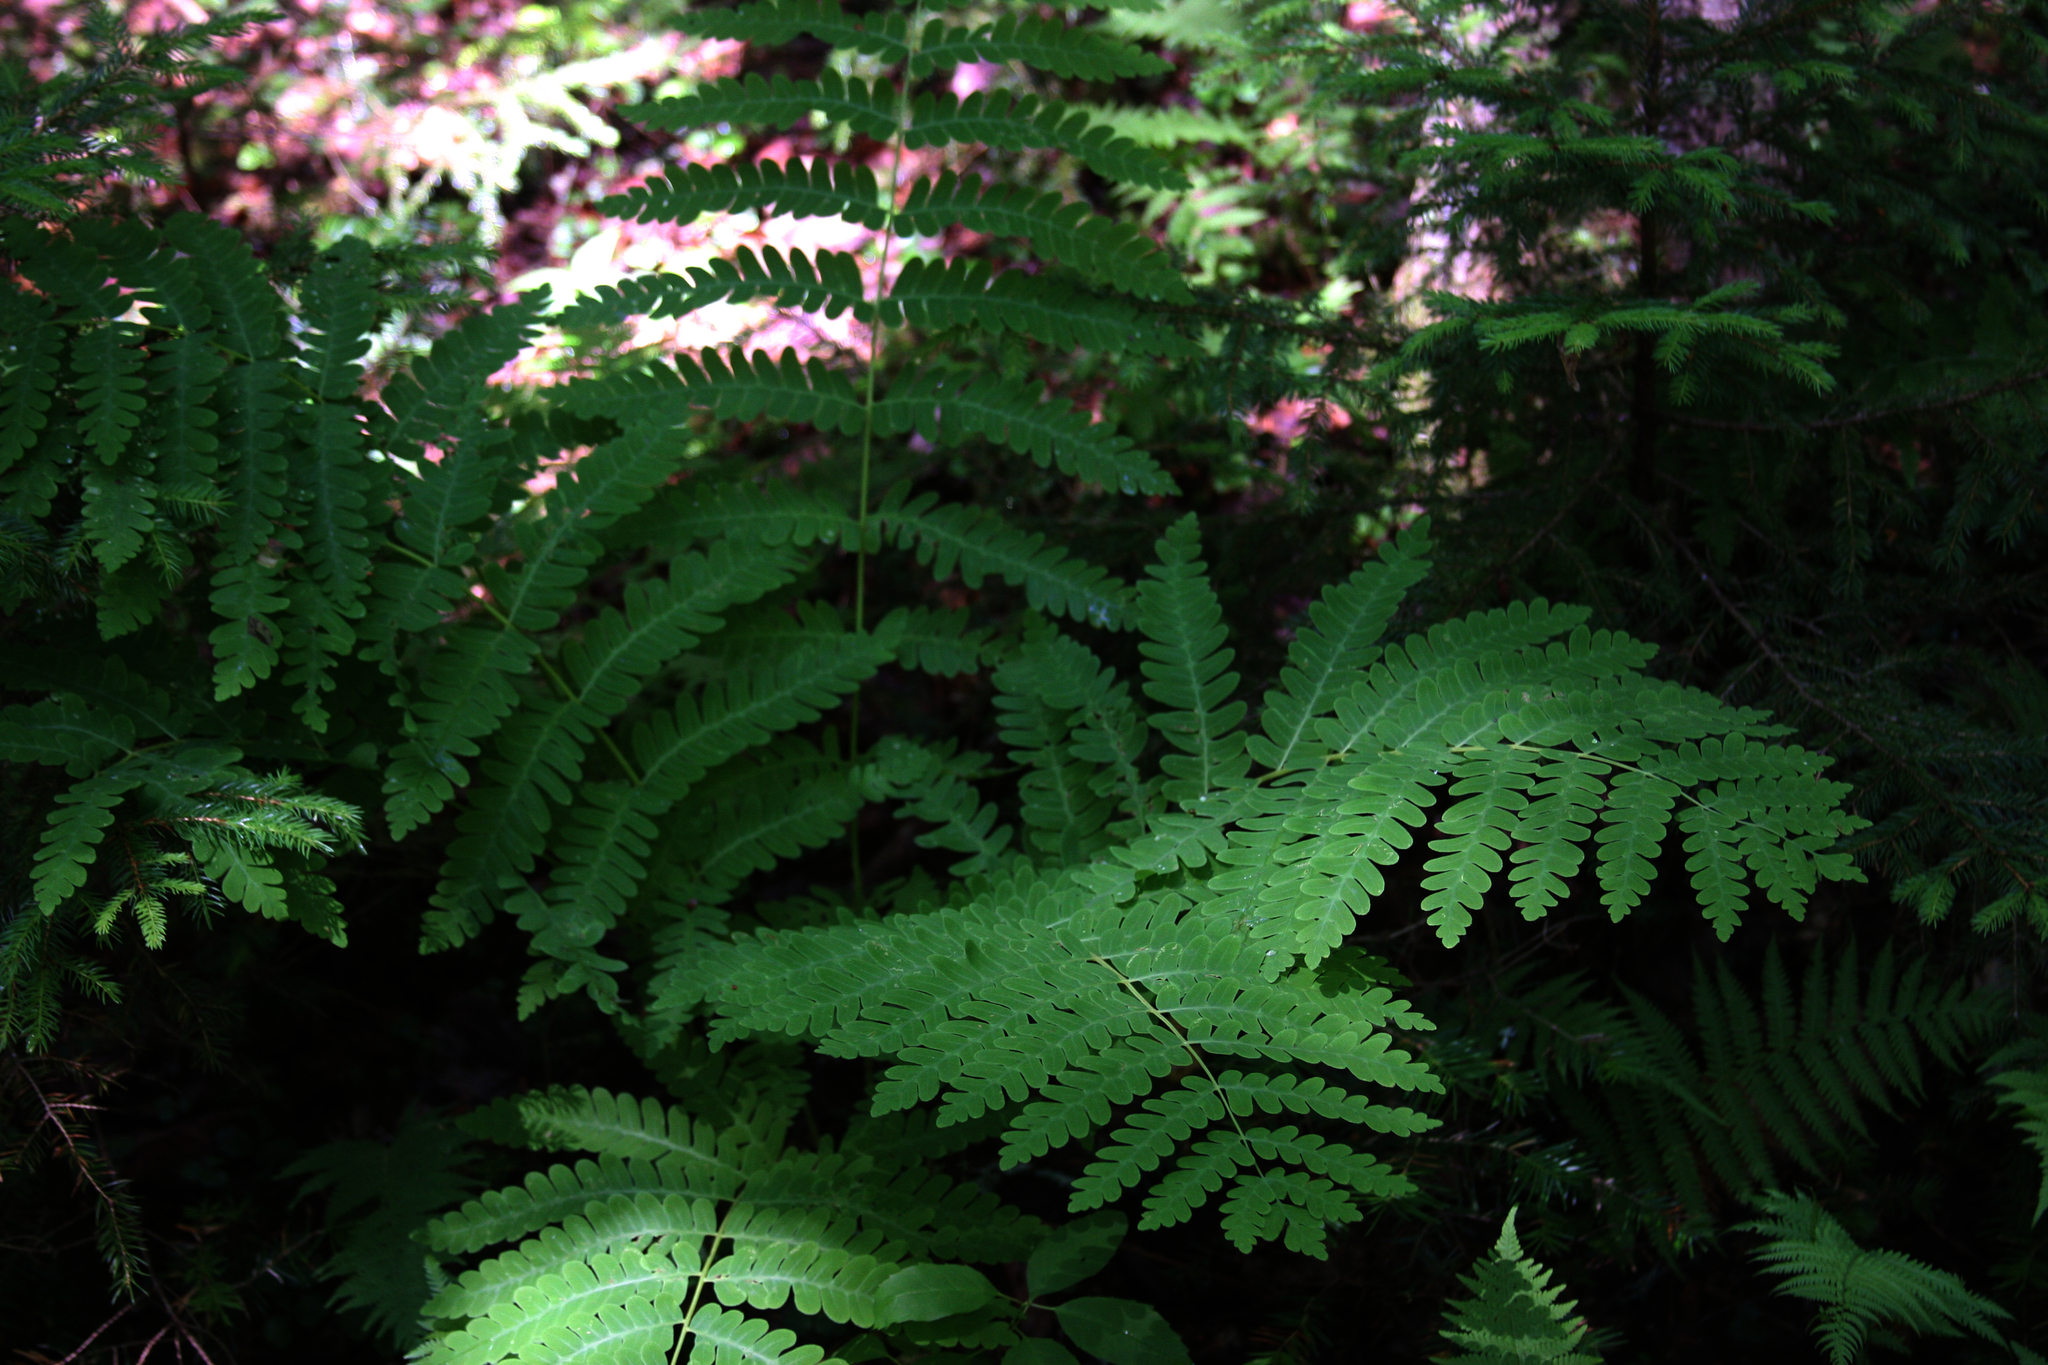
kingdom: Plantae
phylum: Tracheophyta
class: Polypodiopsida
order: Osmundales
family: Osmundaceae
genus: Claytosmunda
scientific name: Claytosmunda claytoniana
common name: Clayton's fern
